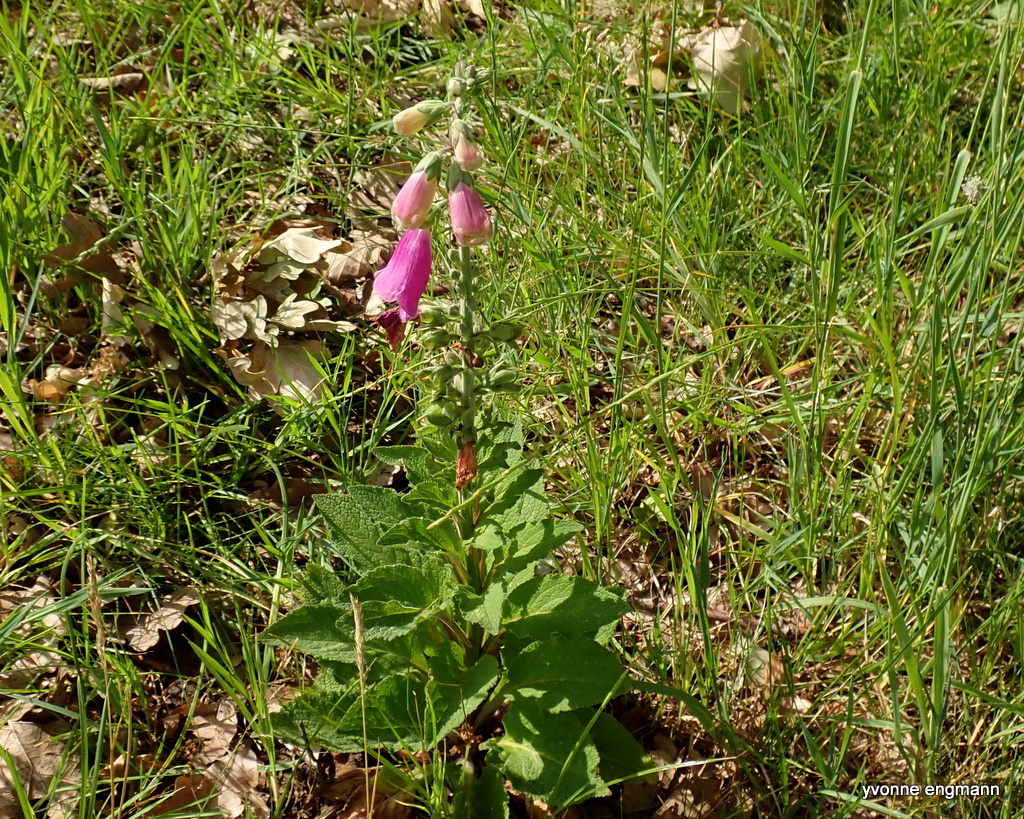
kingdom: Plantae
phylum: Tracheophyta
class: Magnoliopsida
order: Lamiales
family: Plantaginaceae
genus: Digitalis
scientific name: Digitalis purpurea
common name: Foxglove
